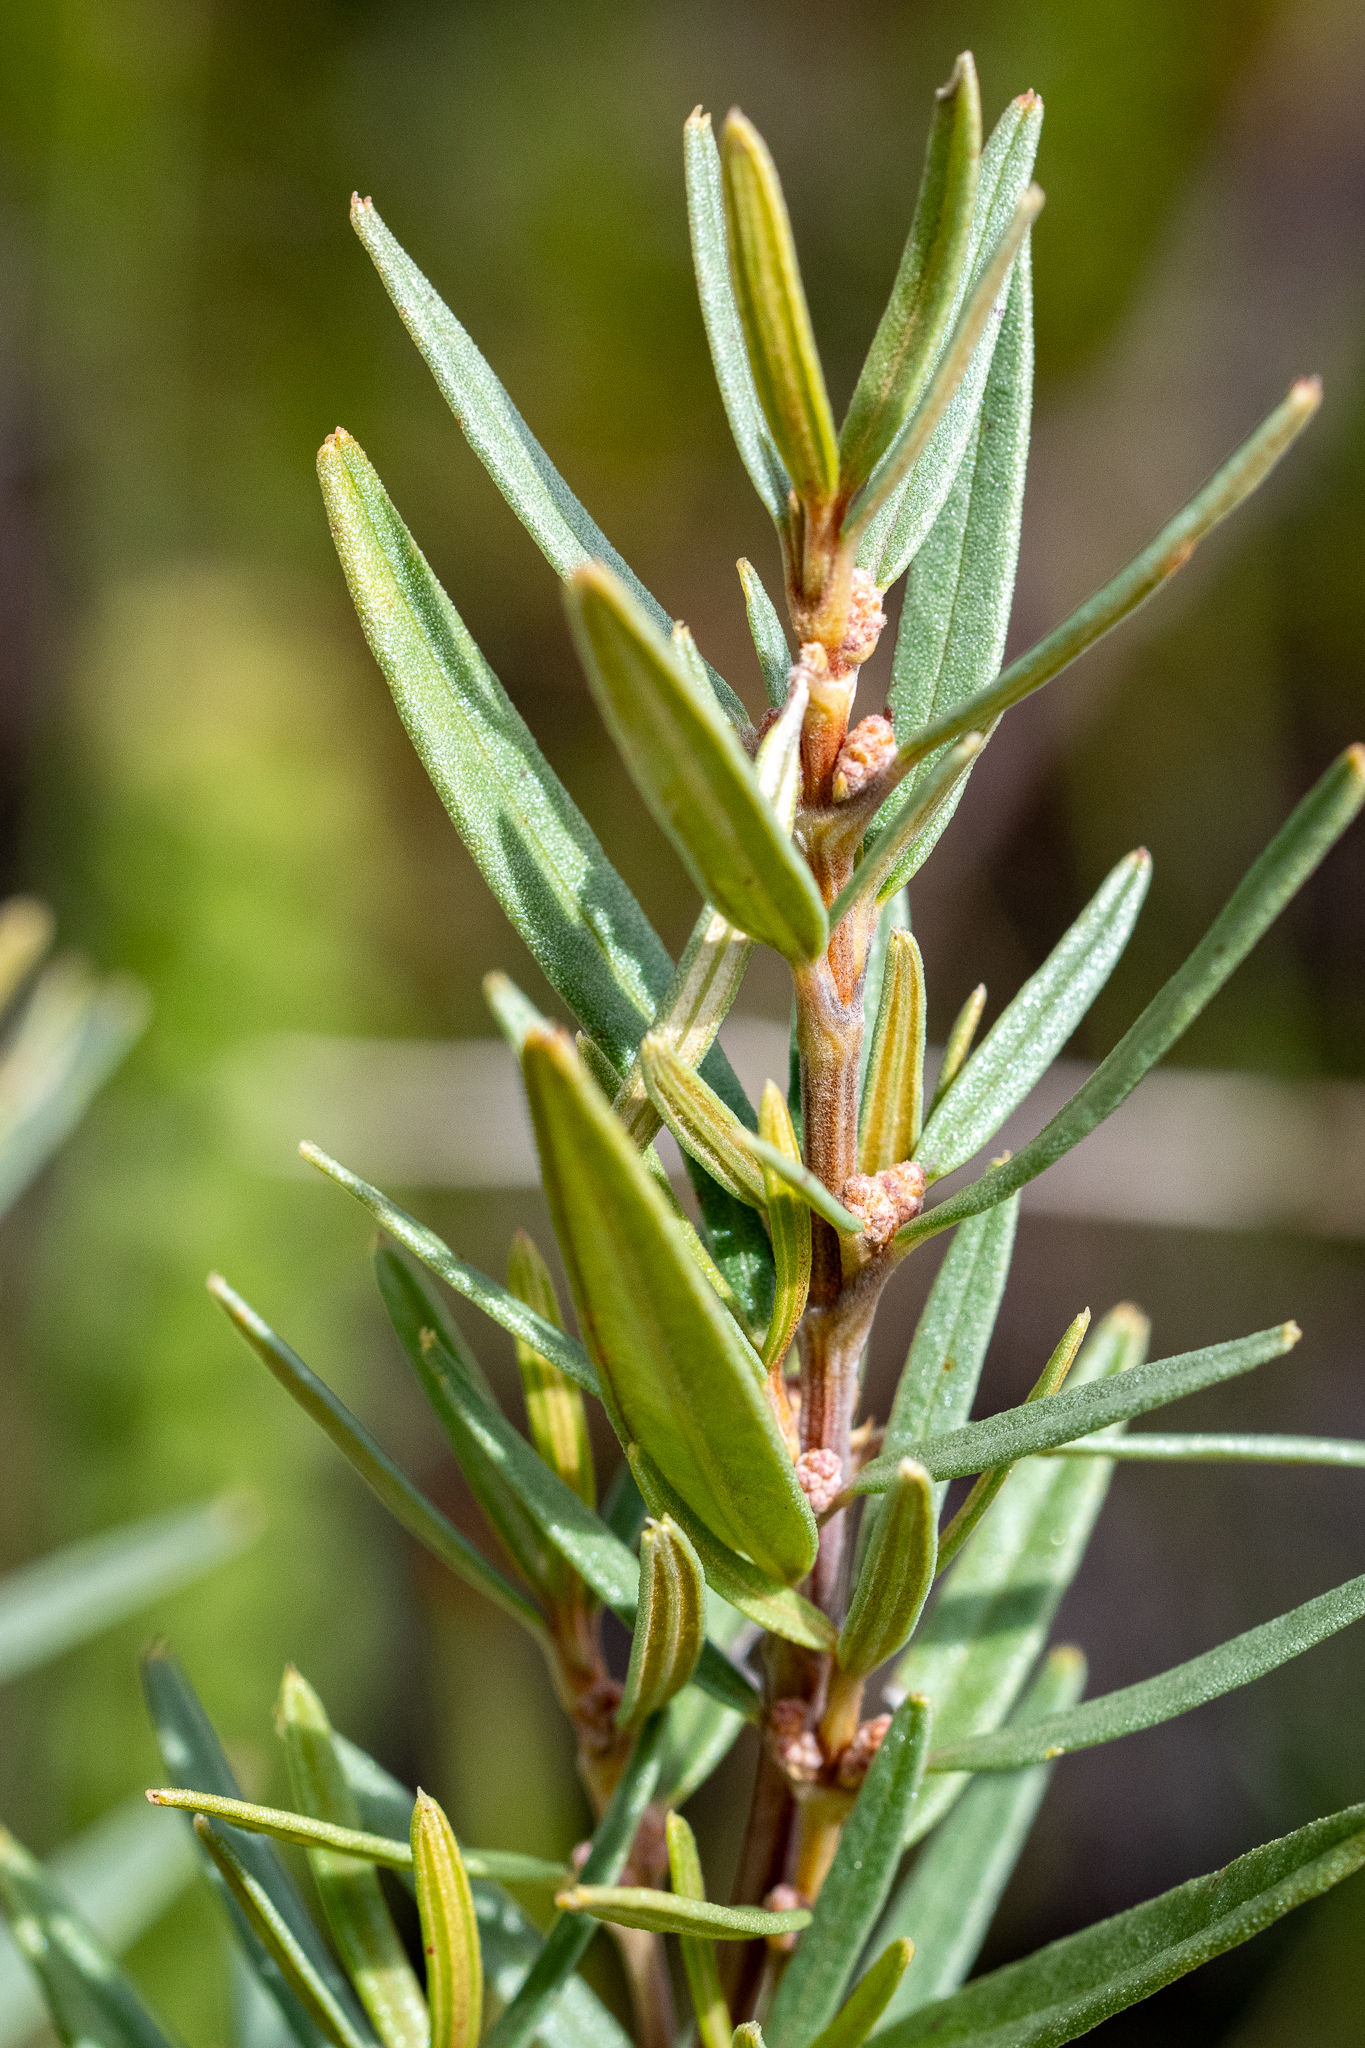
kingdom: Plantae
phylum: Tracheophyta
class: Magnoliopsida
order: Cornales
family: Grubbiaceae
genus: Grubbia
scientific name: Grubbia tomentosa
